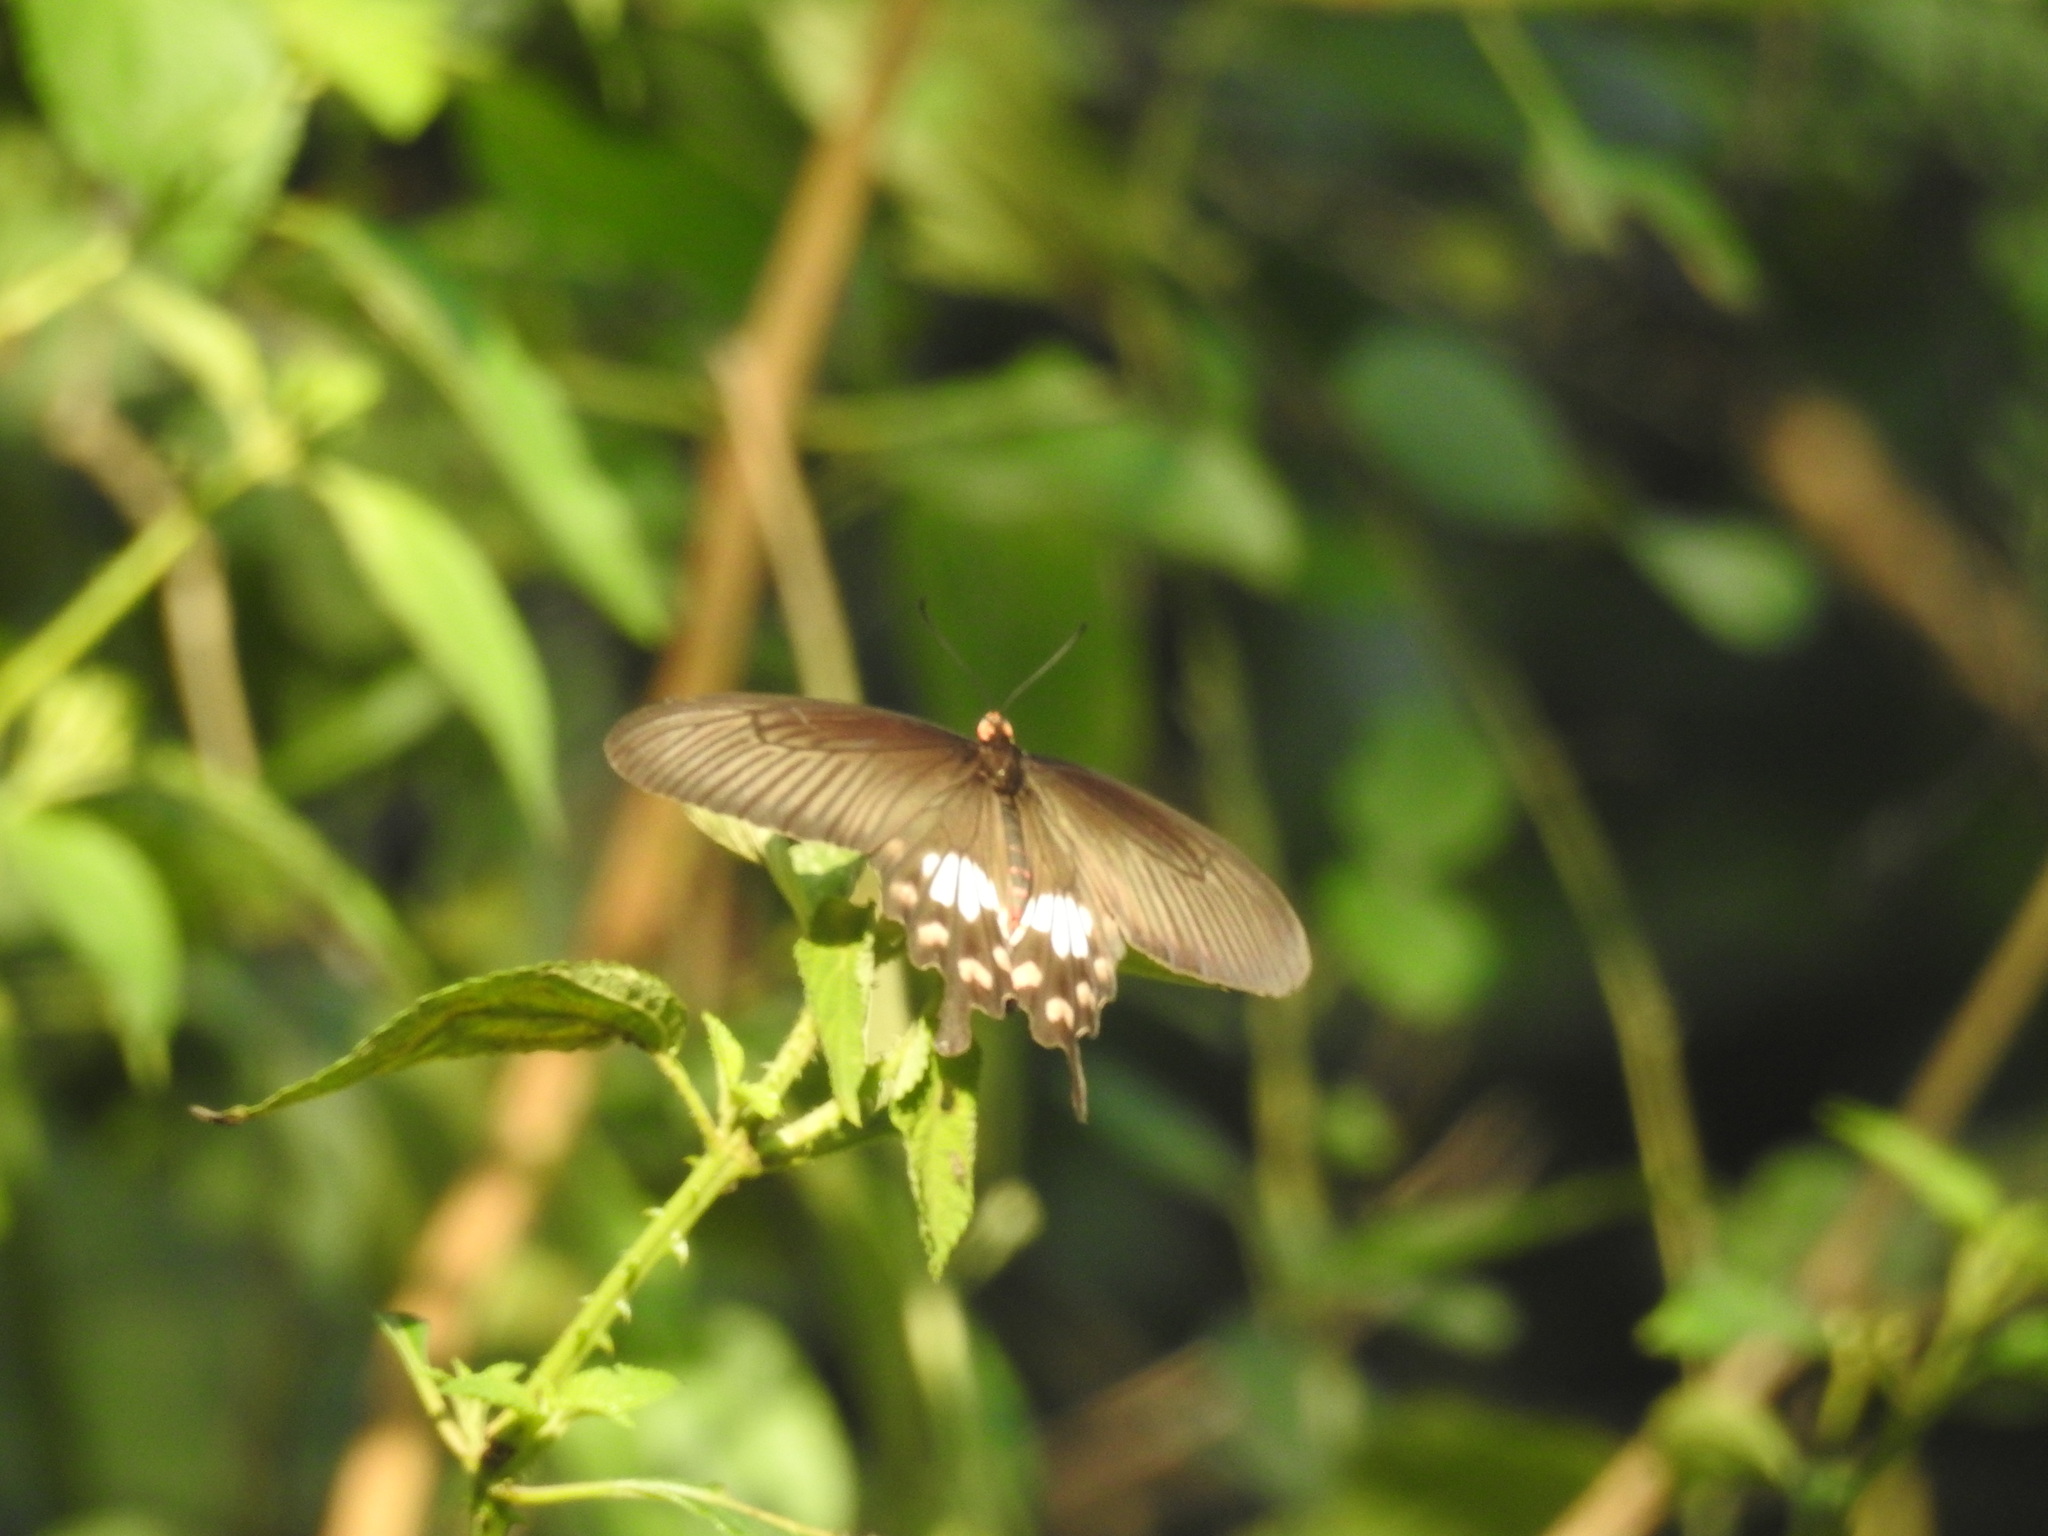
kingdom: Animalia
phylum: Arthropoda
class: Insecta
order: Lepidoptera
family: Papilionidae
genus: Pachliopta
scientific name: Pachliopta aristolochiae
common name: Common rose
